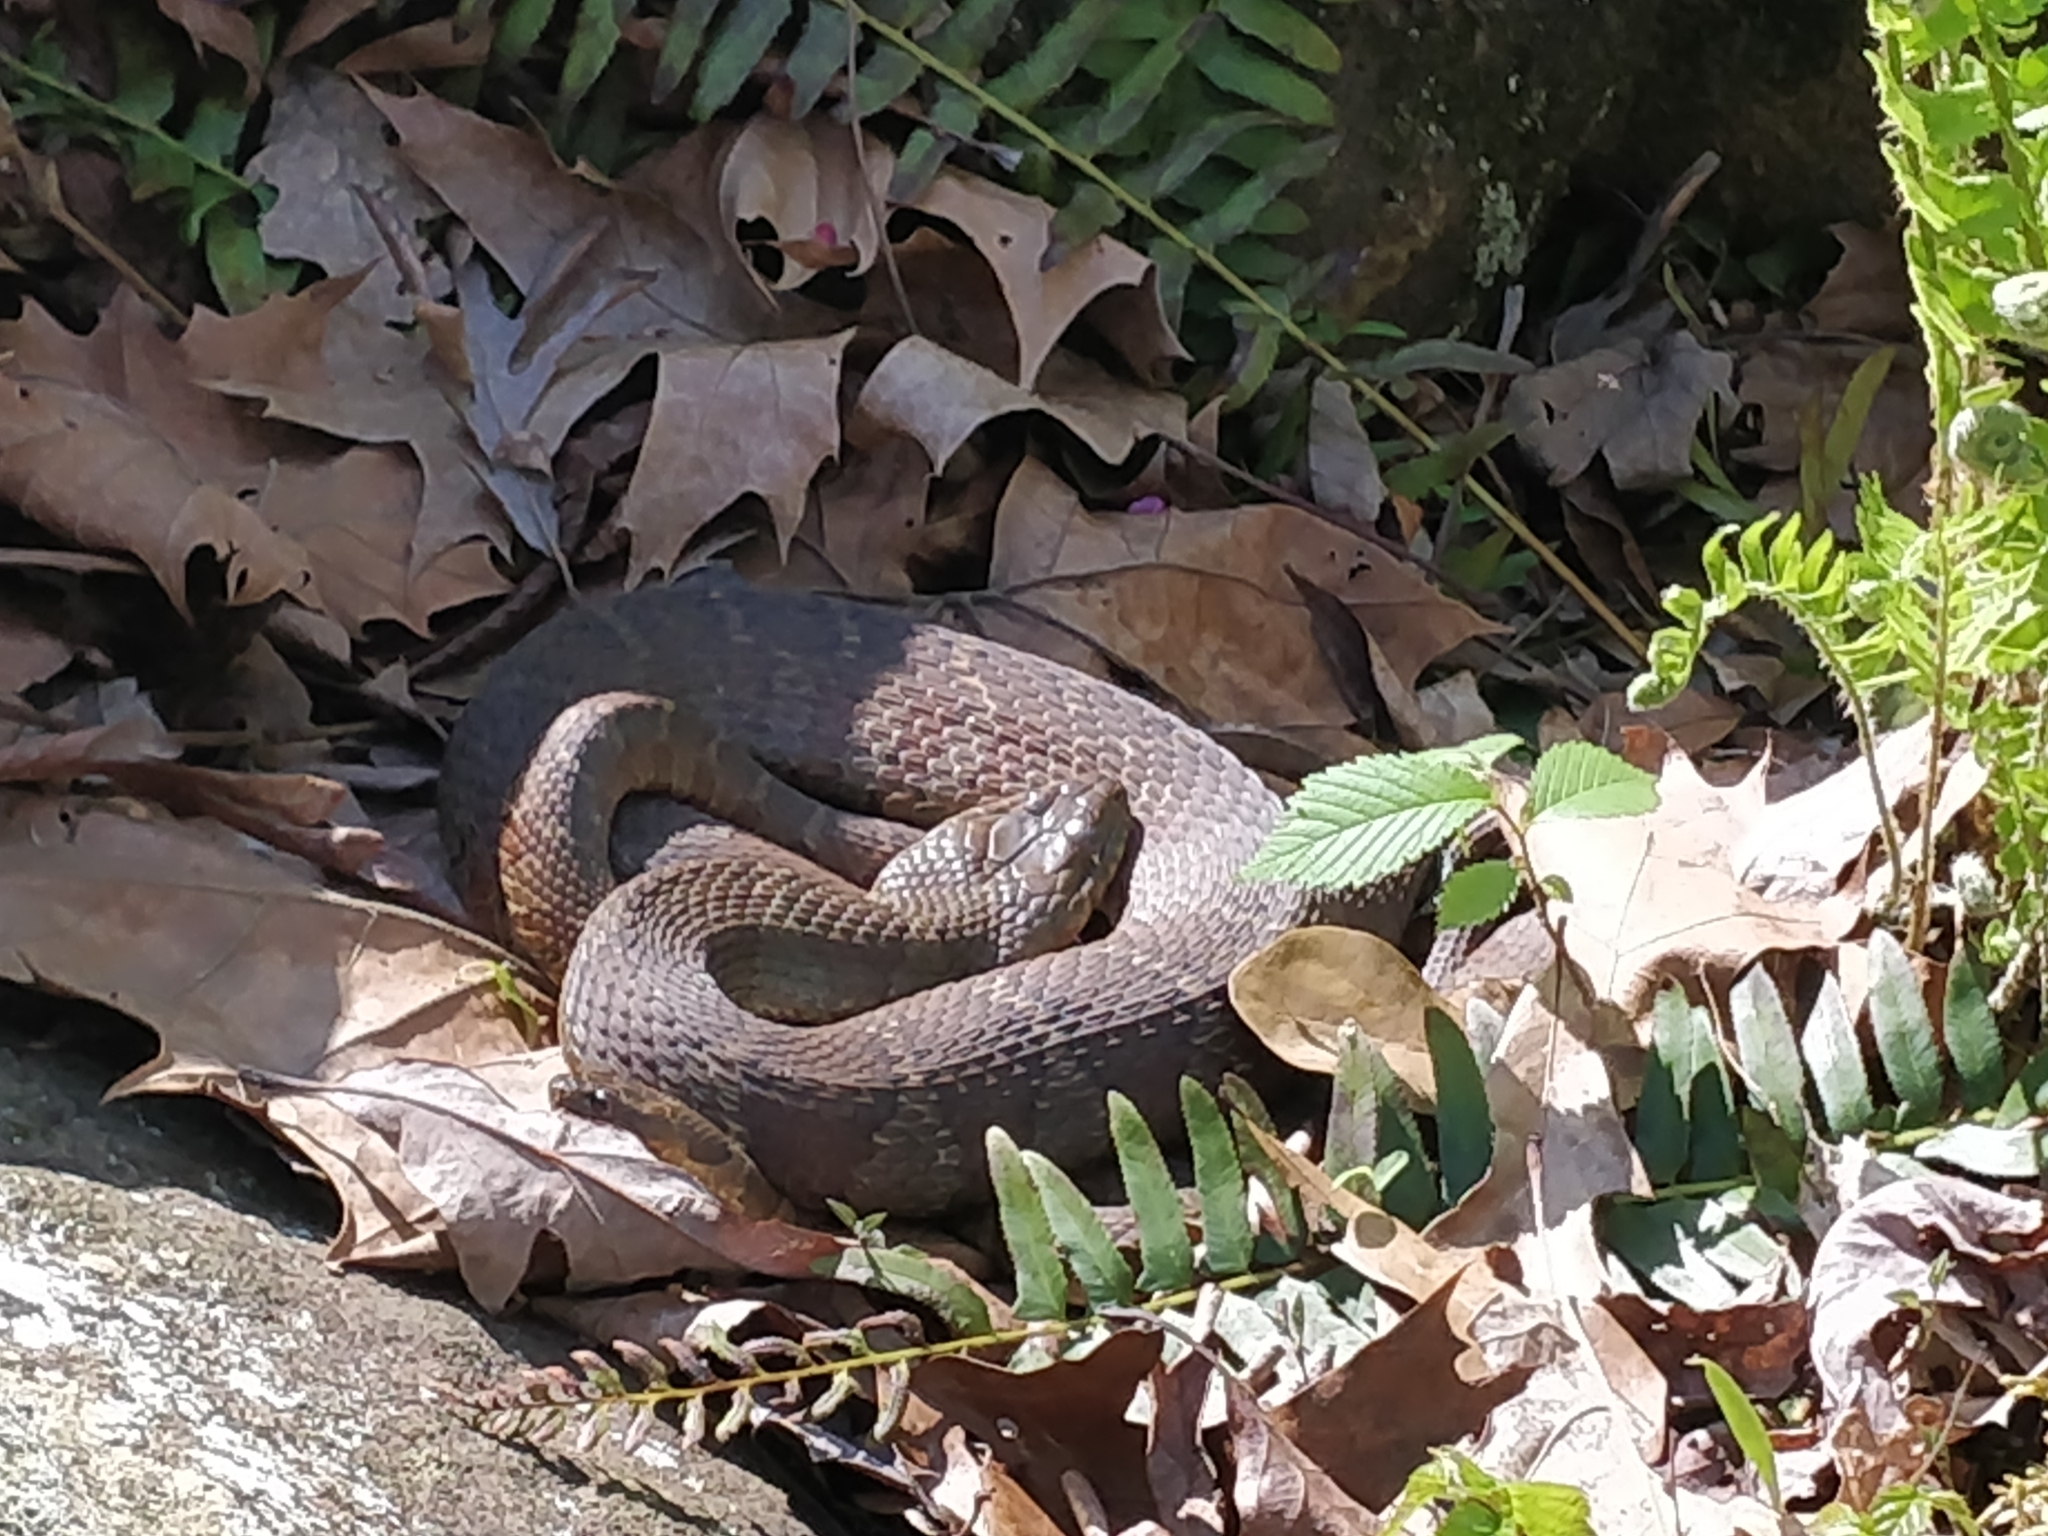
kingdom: Animalia
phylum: Chordata
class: Squamata
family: Colubridae
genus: Nerodia
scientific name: Nerodia sipedon
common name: Northern water snake
